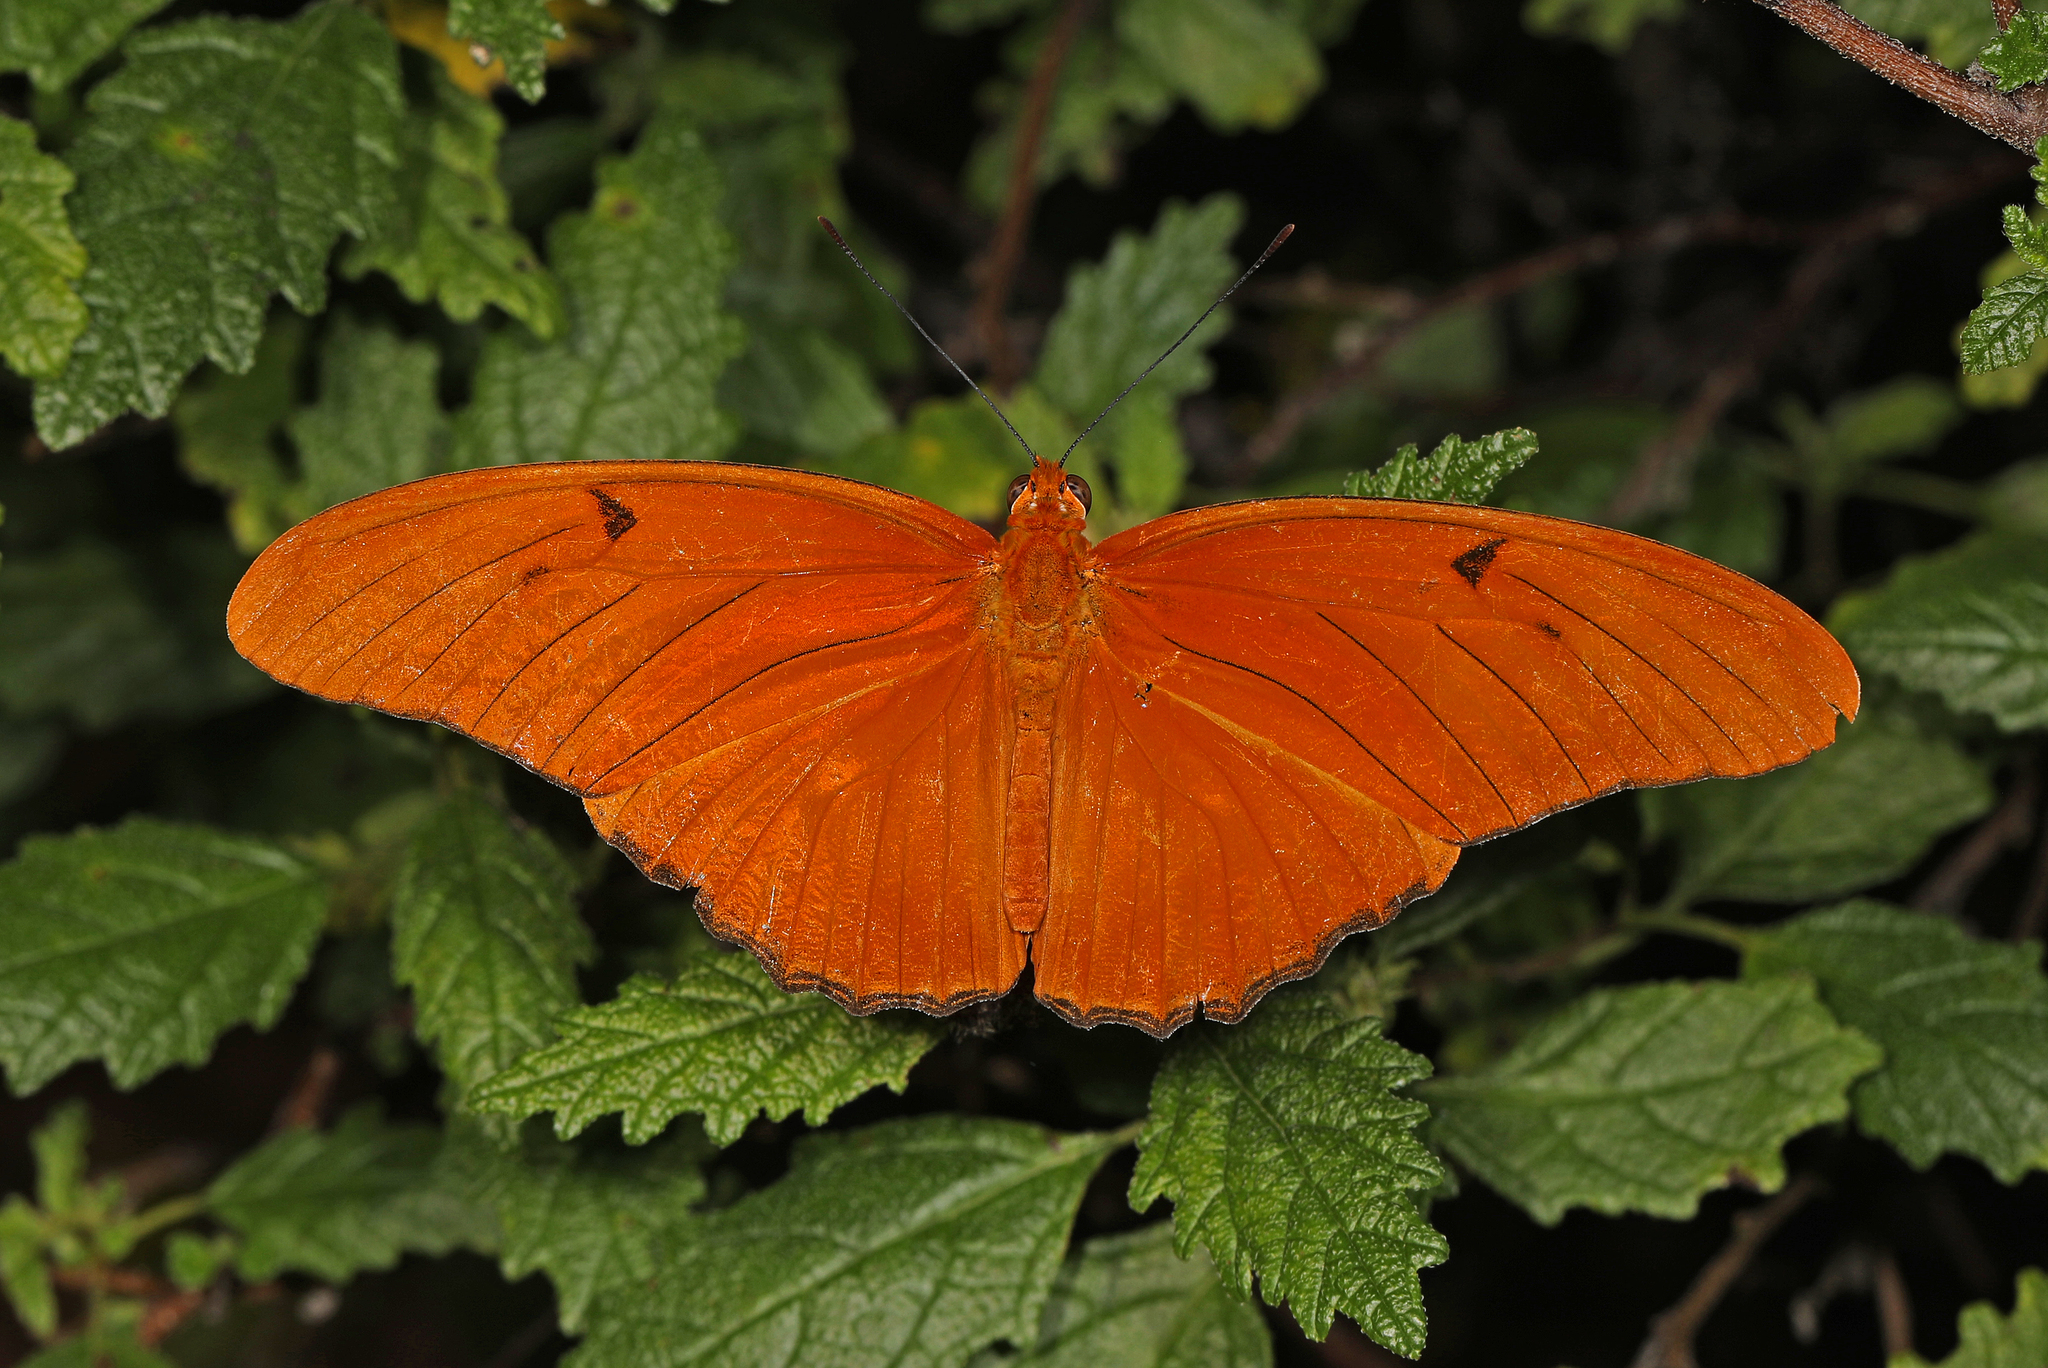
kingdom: Animalia
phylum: Arthropoda
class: Insecta
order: Lepidoptera
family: Nymphalidae
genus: Dryas
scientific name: Dryas iulia
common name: Flambeau
